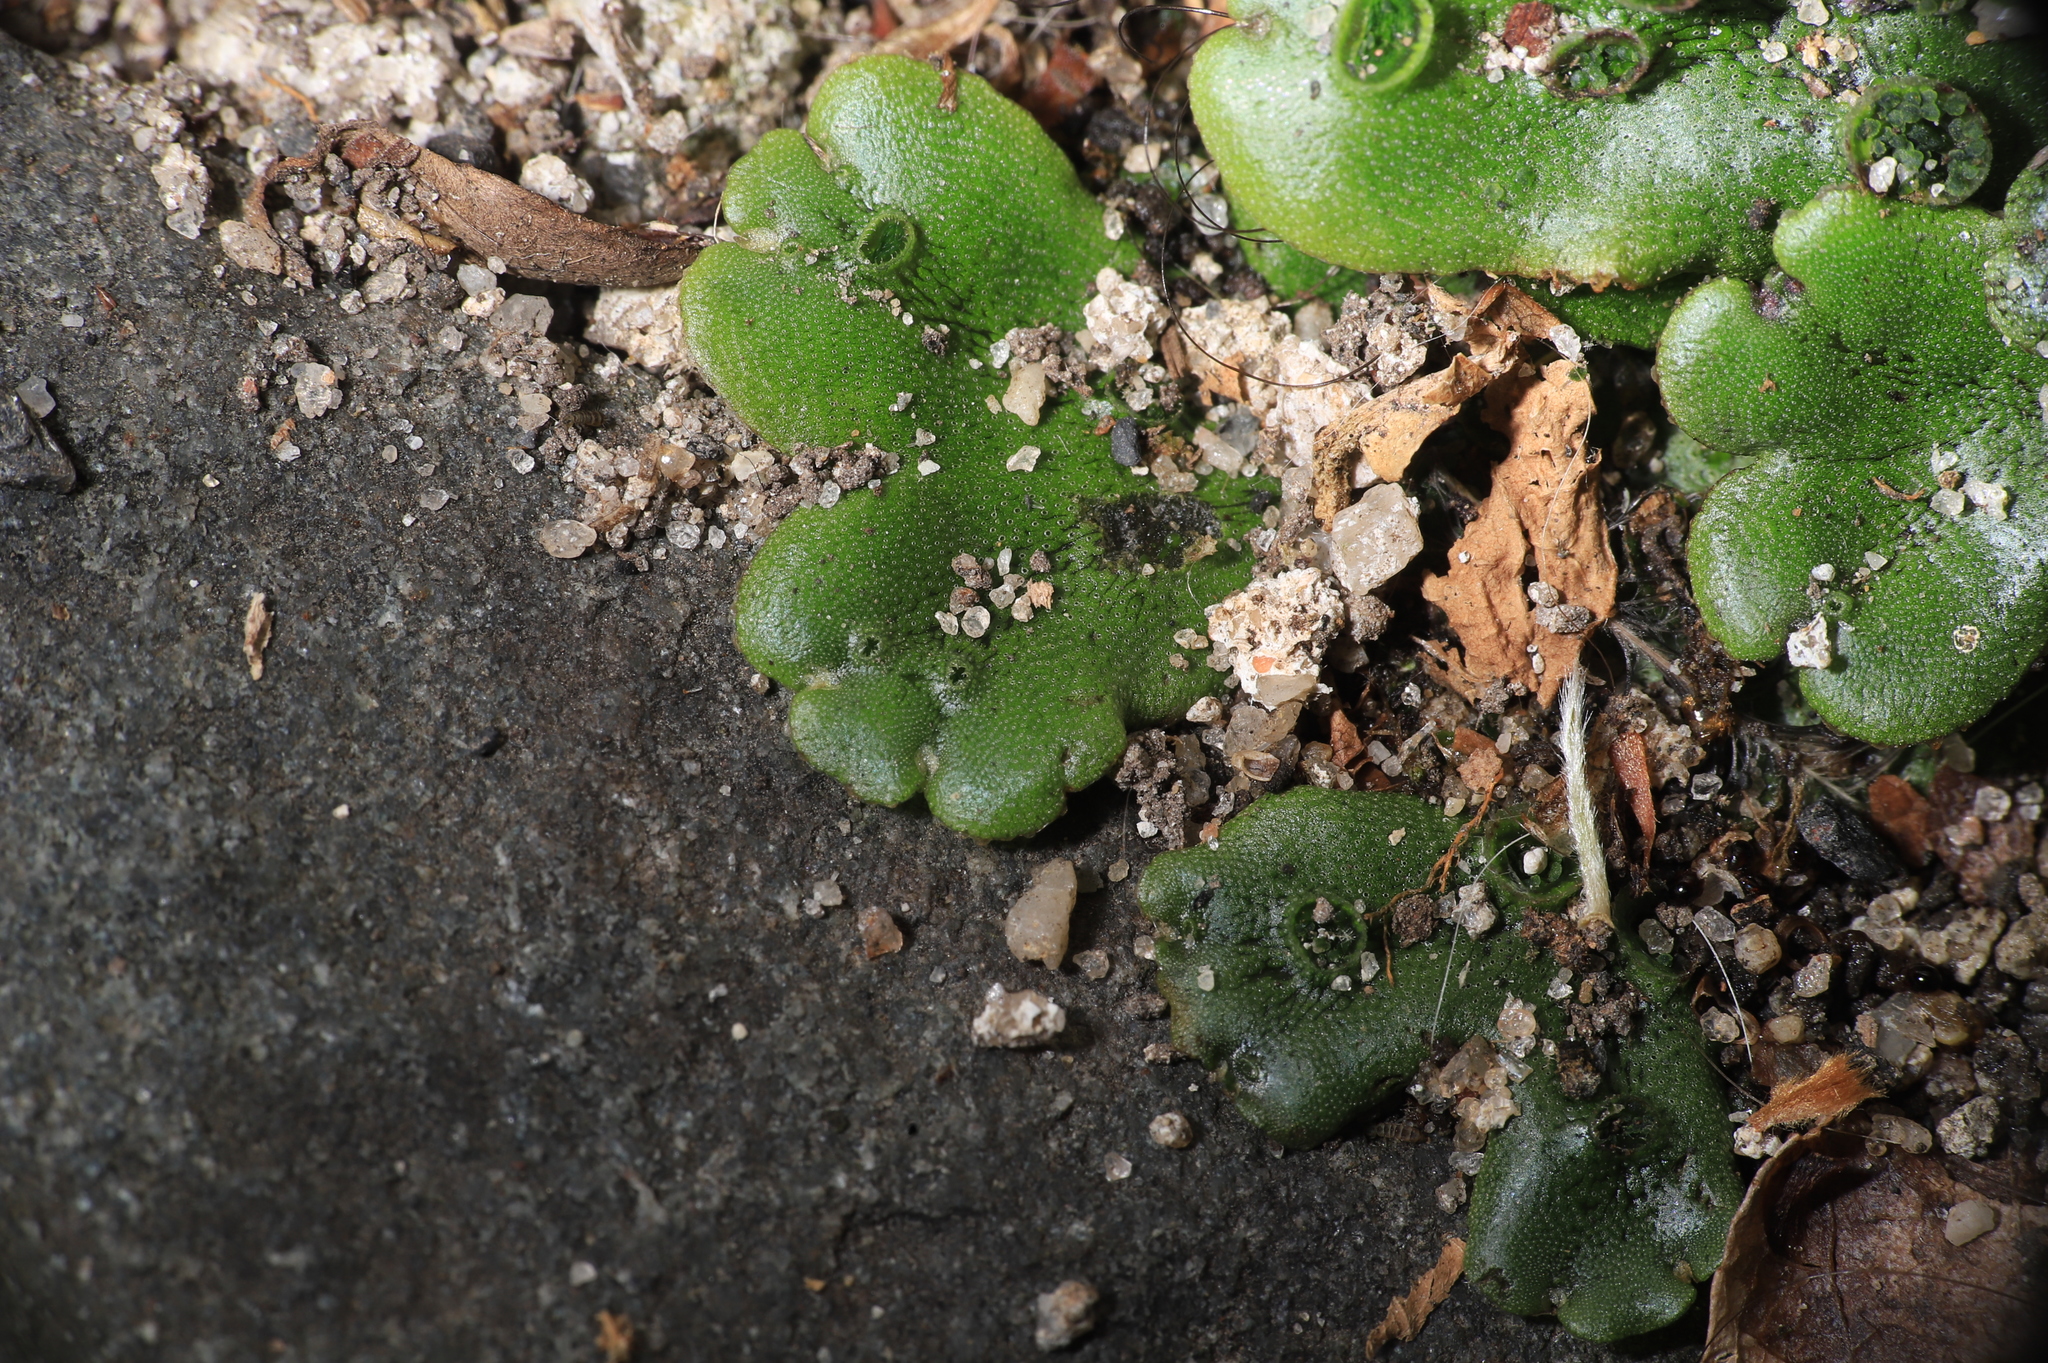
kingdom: Plantae
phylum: Marchantiophyta
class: Marchantiopsida
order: Marchantiales
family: Marchantiaceae
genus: Marchantia
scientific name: Marchantia polymorpha
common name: Common liverwort
